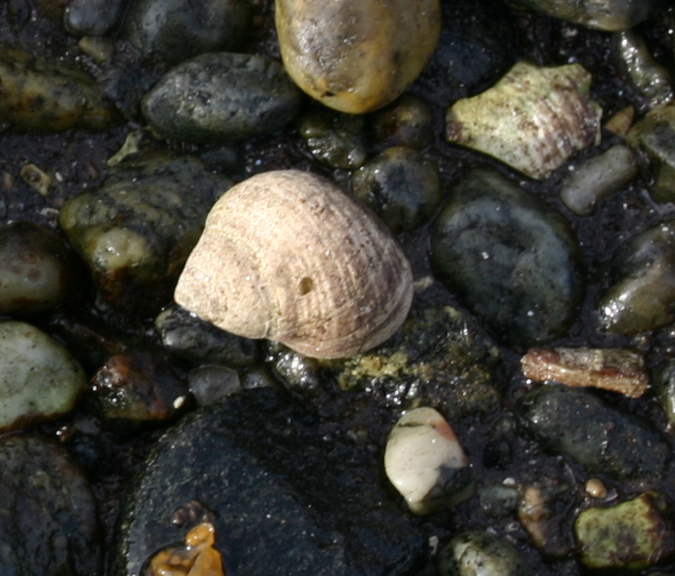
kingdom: Animalia
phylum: Mollusca
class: Gastropoda
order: Littorinimorpha
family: Littorinidae
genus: Littorina
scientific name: Littorina littorea
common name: Common periwinkle
